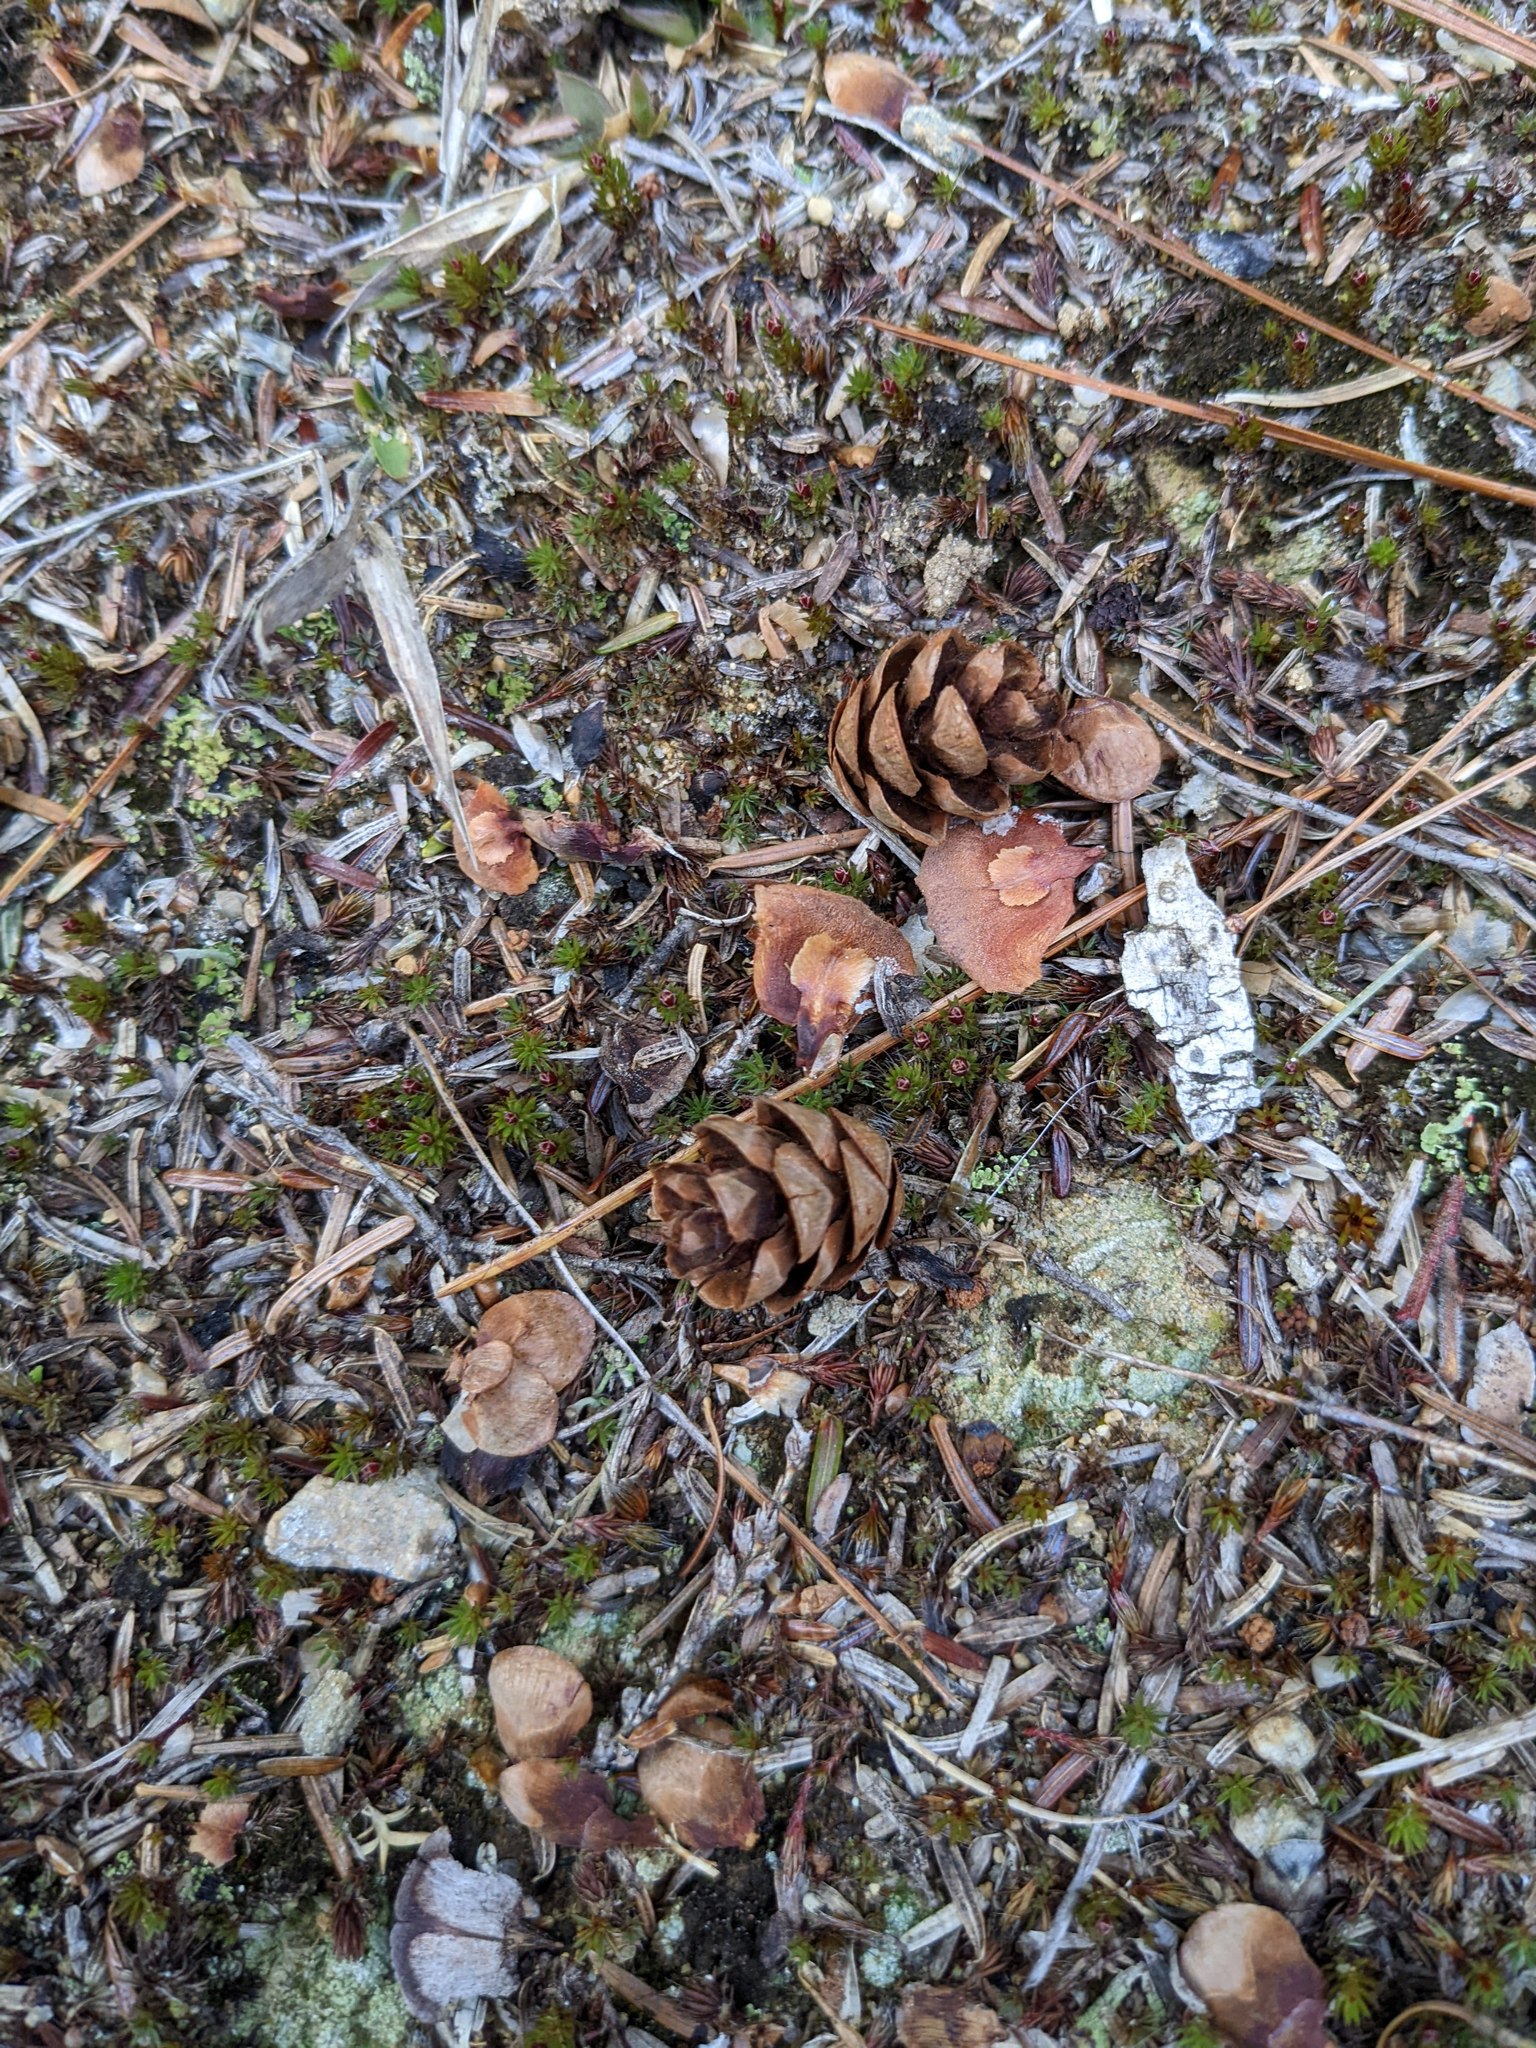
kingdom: Plantae
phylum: Tracheophyta
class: Pinopsida
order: Pinales
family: Pinaceae
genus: Tsuga
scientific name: Tsuga canadensis
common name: Eastern hemlock
